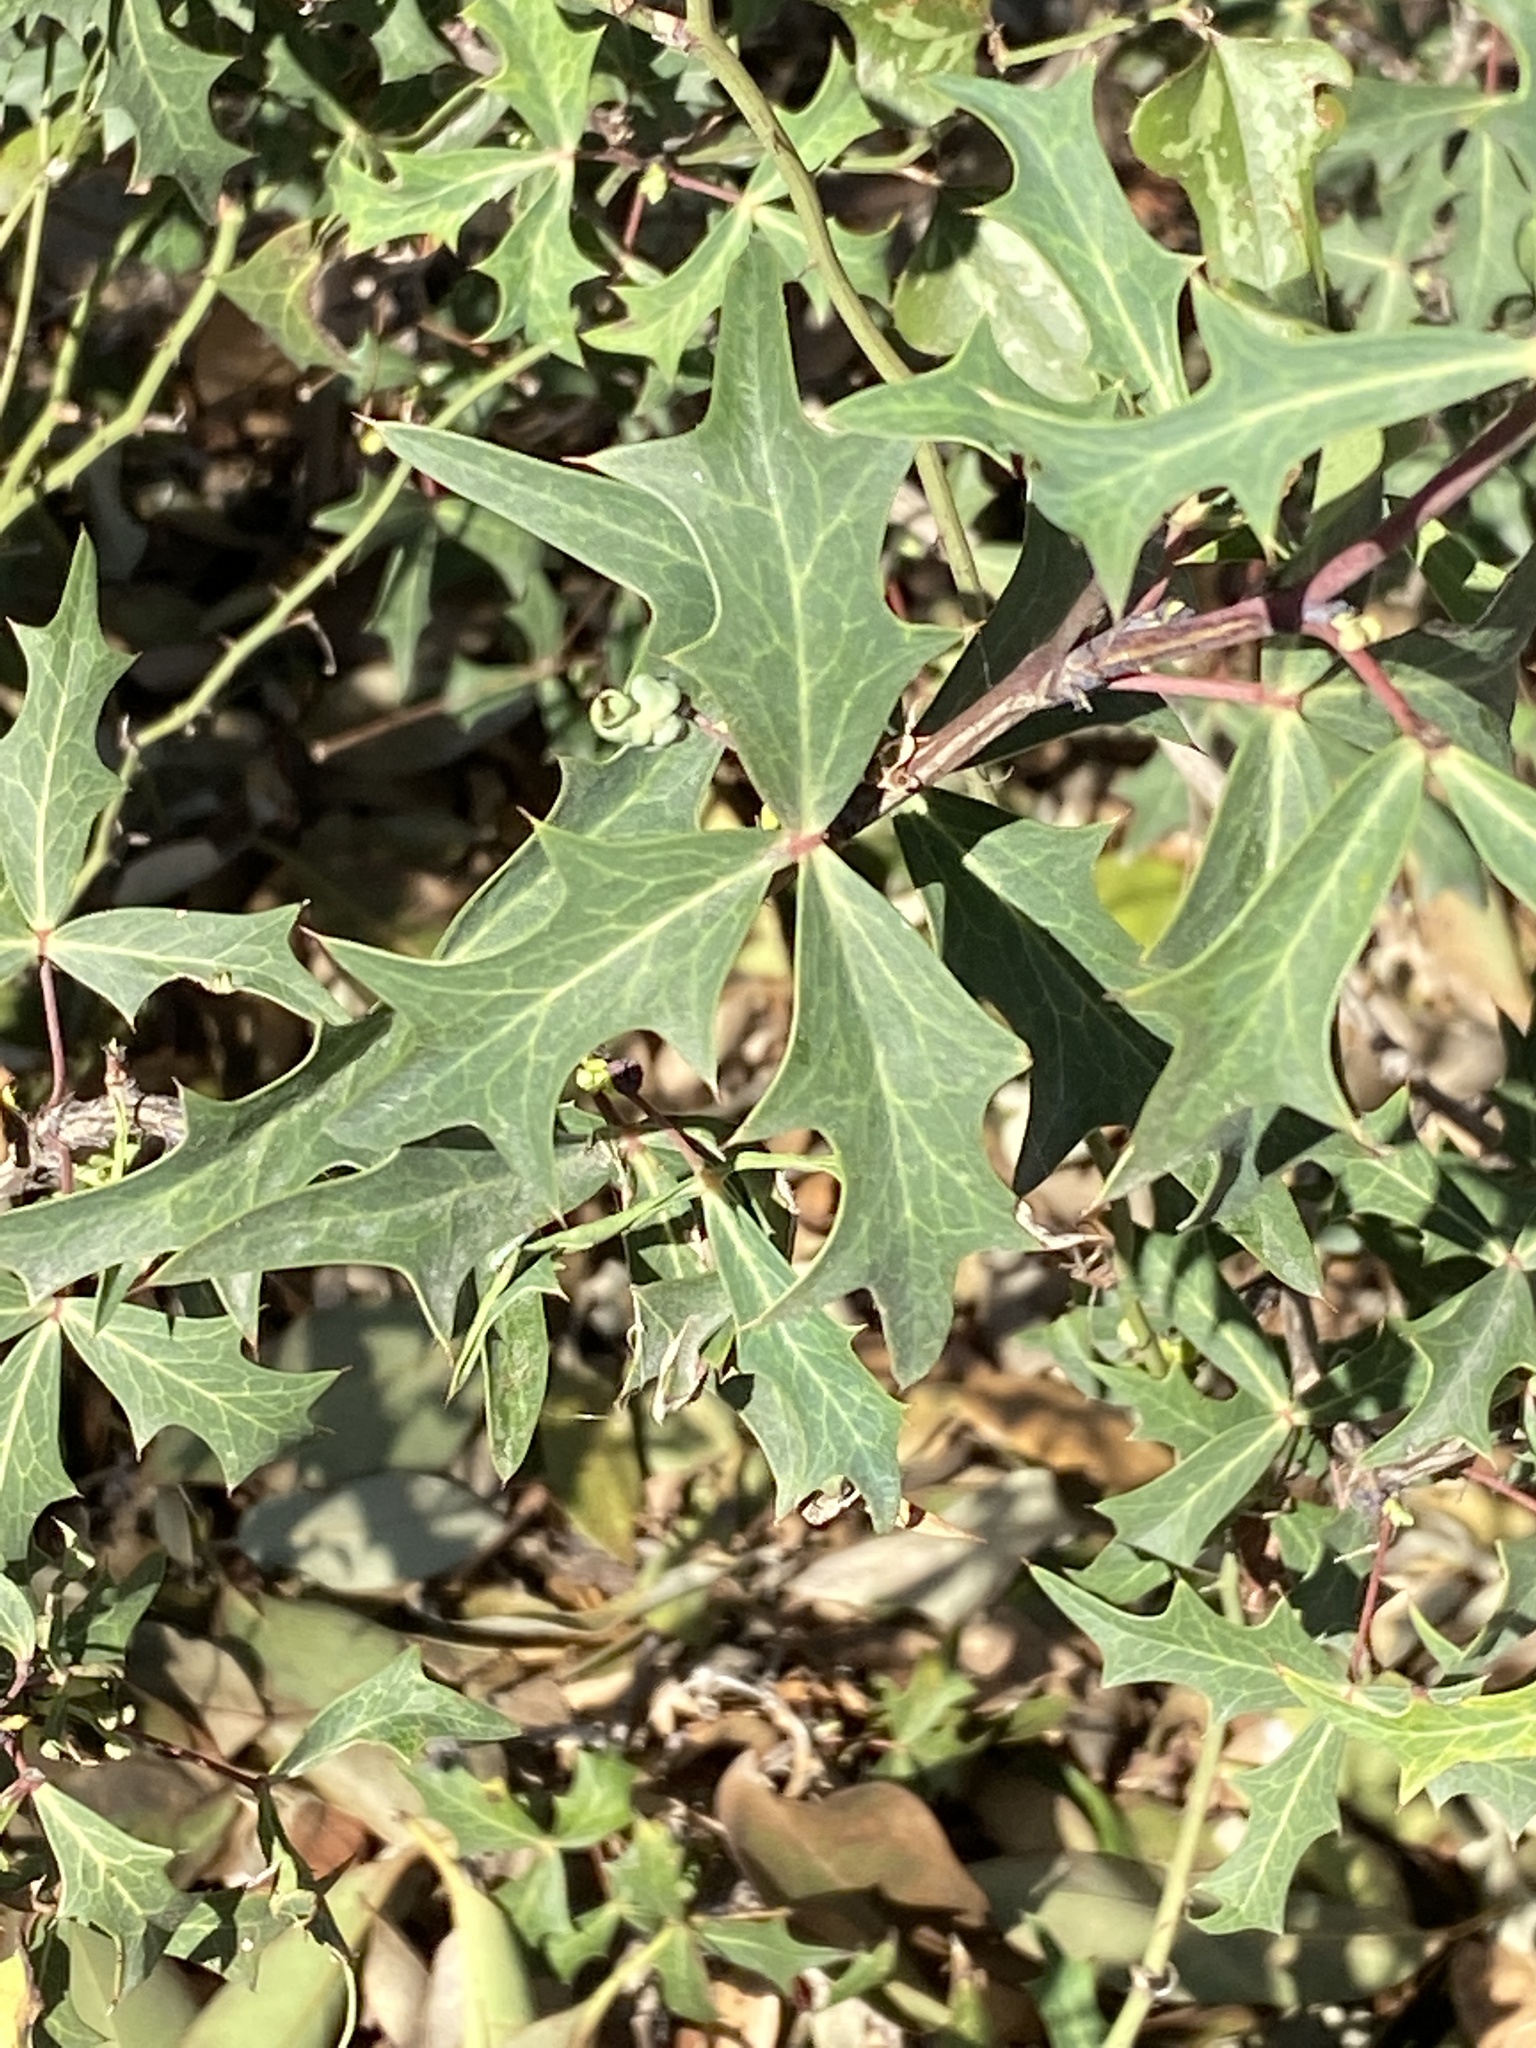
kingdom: Plantae
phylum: Tracheophyta
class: Magnoliopsida
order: Ranunculales
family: Berberidaceae
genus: Alloberberis
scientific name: Alloberberis trifoliolata
